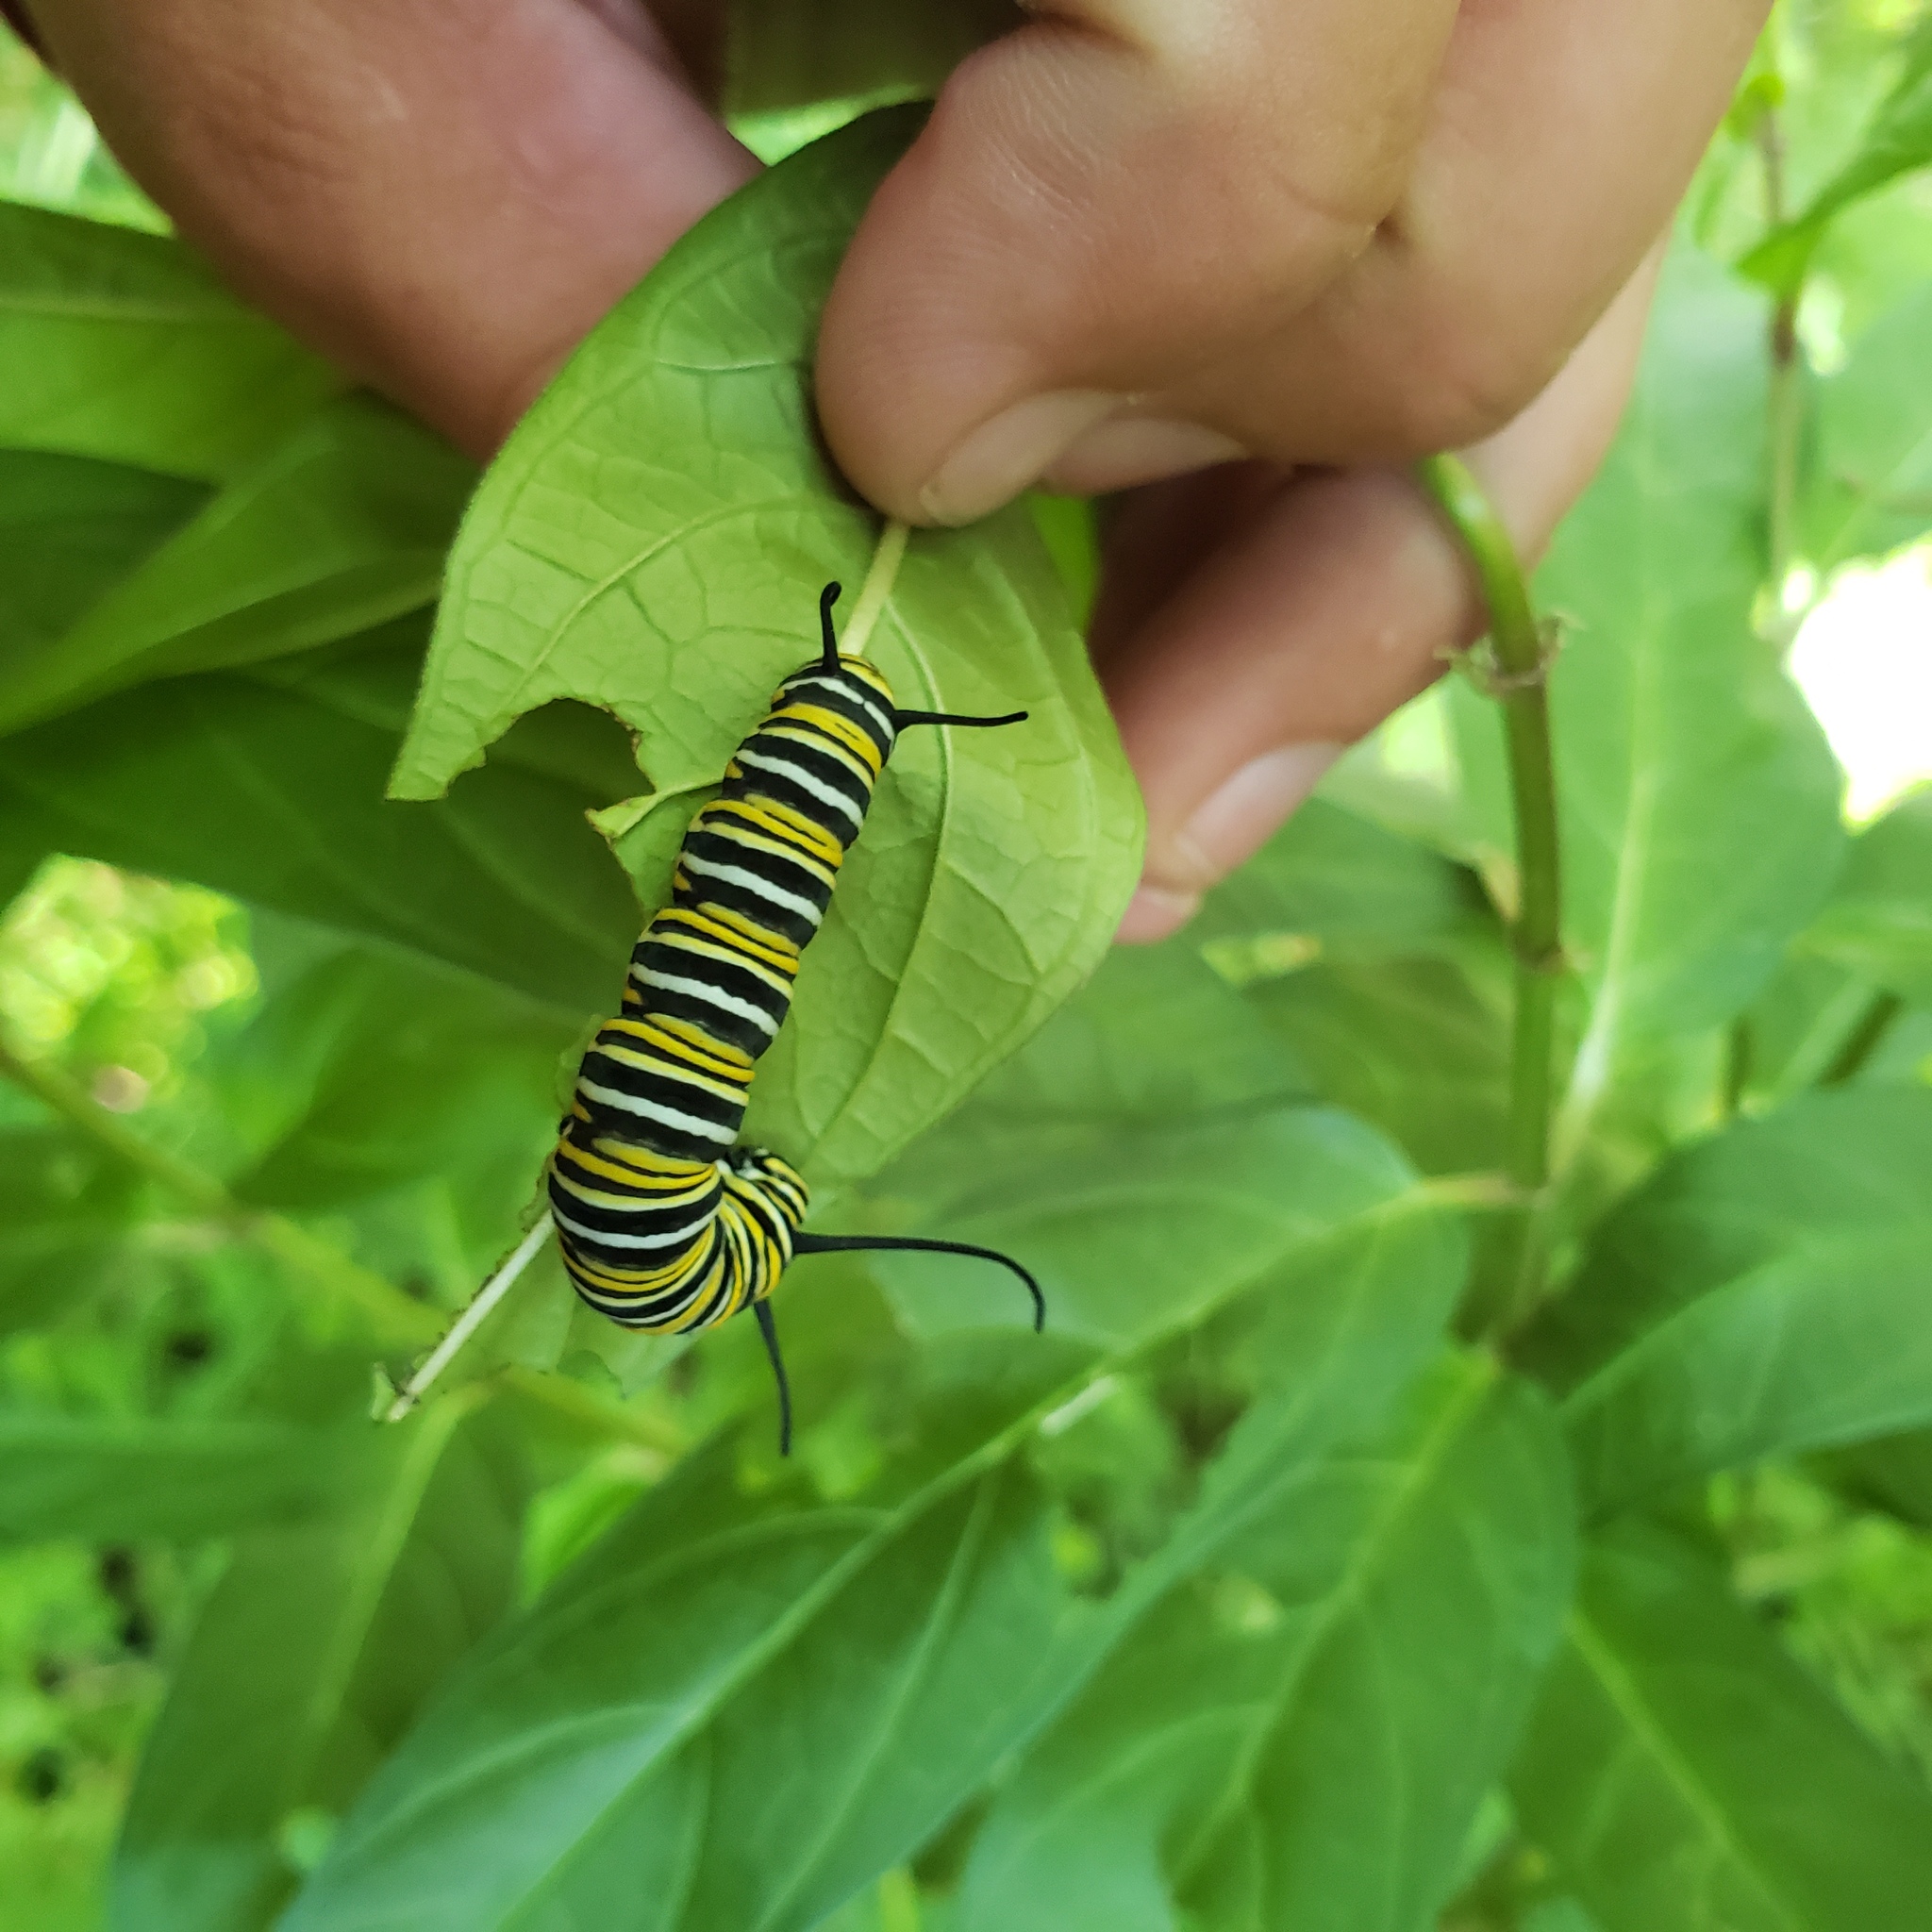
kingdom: Animalia
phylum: Arthropoda
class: Insecta
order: Lepidoptera
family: Nymphalidae
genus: Danaus
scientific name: Danaus plexippus
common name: Monarch
